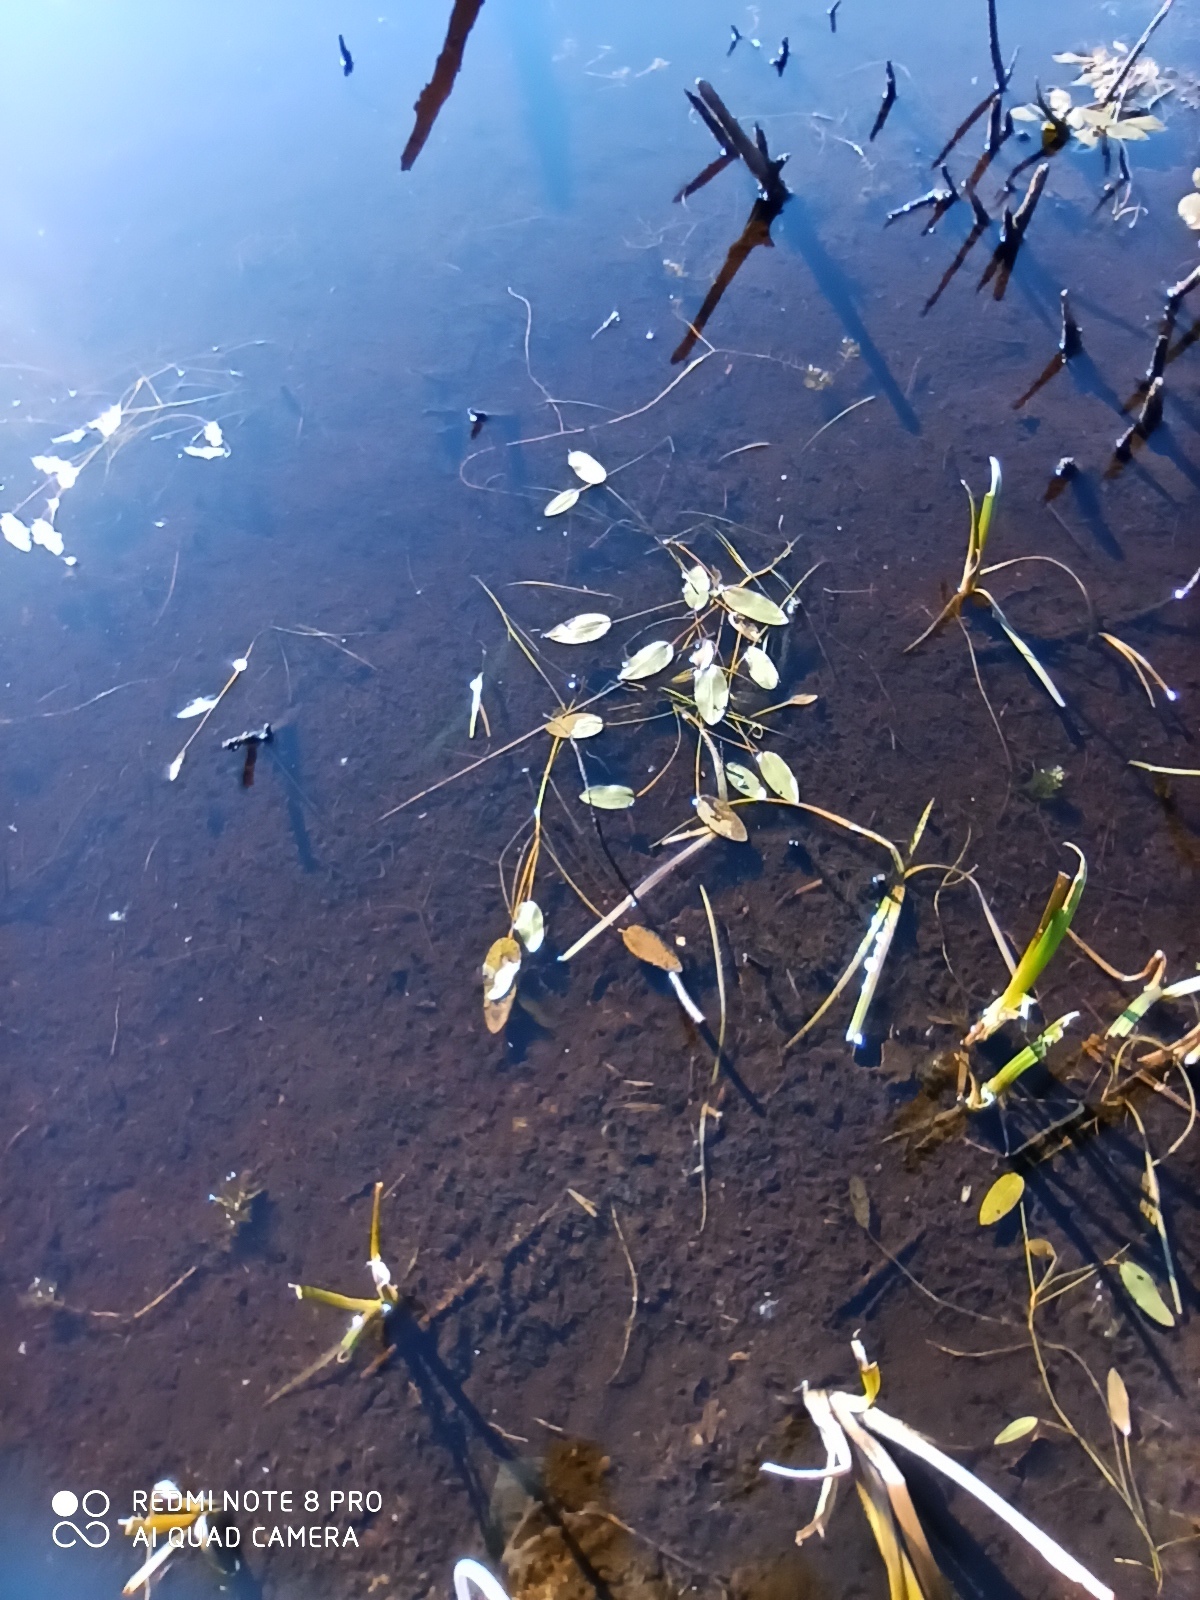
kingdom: Plantae
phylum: Tracheophyta
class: Liliopsida
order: Alismatales
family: Potamogetonaceae
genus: Potamogeton
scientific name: Potamogeton natans
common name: Broad-leaved pondweed
